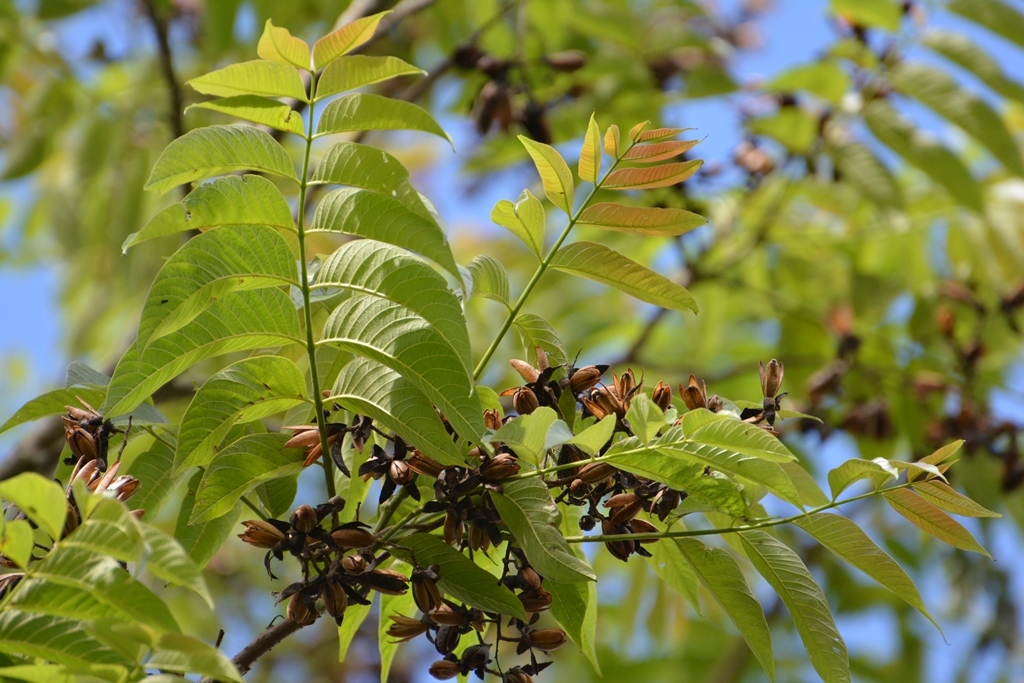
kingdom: Plantae
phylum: Tracheophyta
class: Magnoliopsida
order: Sapindales
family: Meliaceae
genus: Cedrela
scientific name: Cedrela odorata
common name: Red cedar
